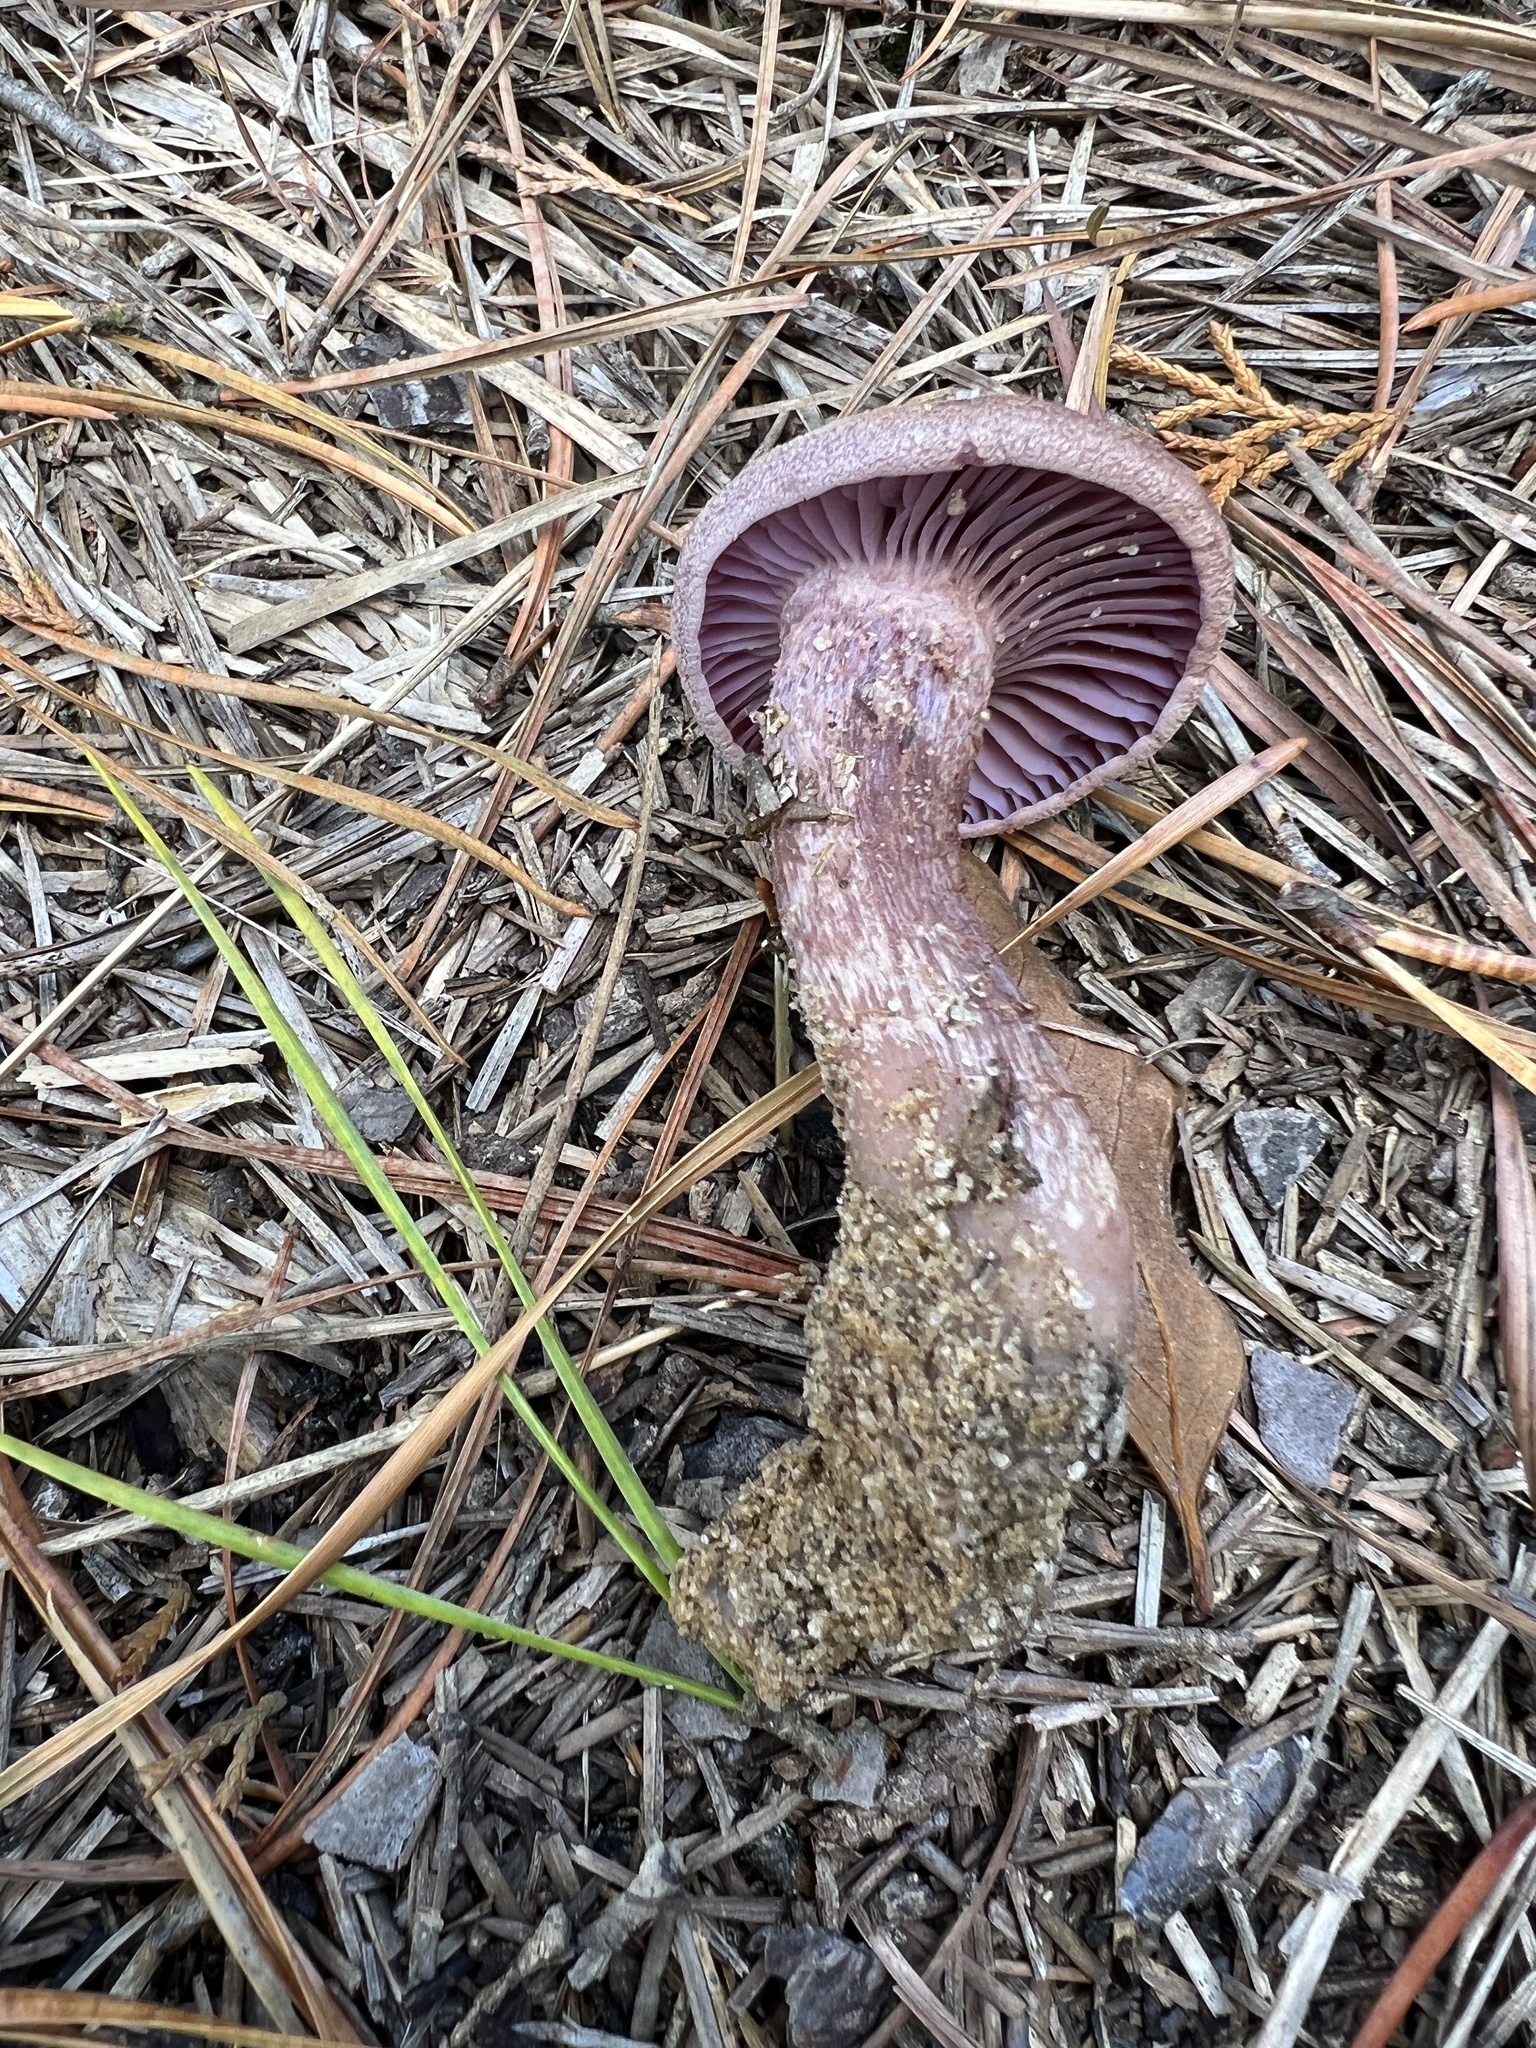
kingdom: Fungi
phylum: Basidiomycota
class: Agaricomycetes
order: Agaricales
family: Hydnangiaceae
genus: Laccaria
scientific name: Laccaria trullissata
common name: Sandy laccaria
